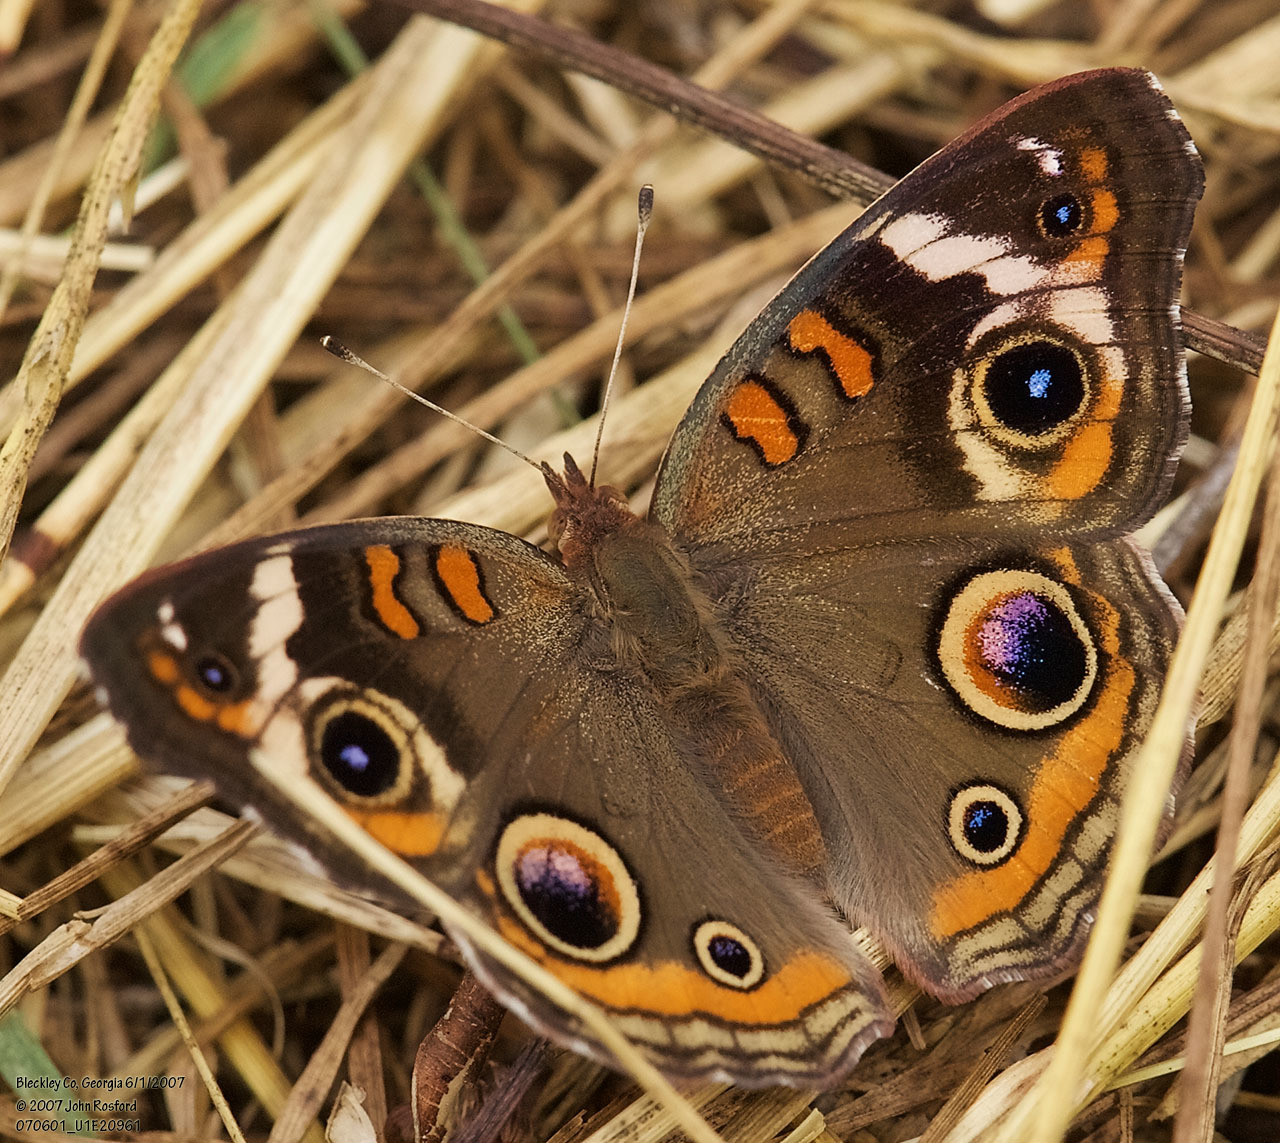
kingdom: Animalia
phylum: Arthropoda
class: Insecta
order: Lepidoptera
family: Nymphalidae
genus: Junonia
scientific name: Junonia coenia
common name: Common buckeye
